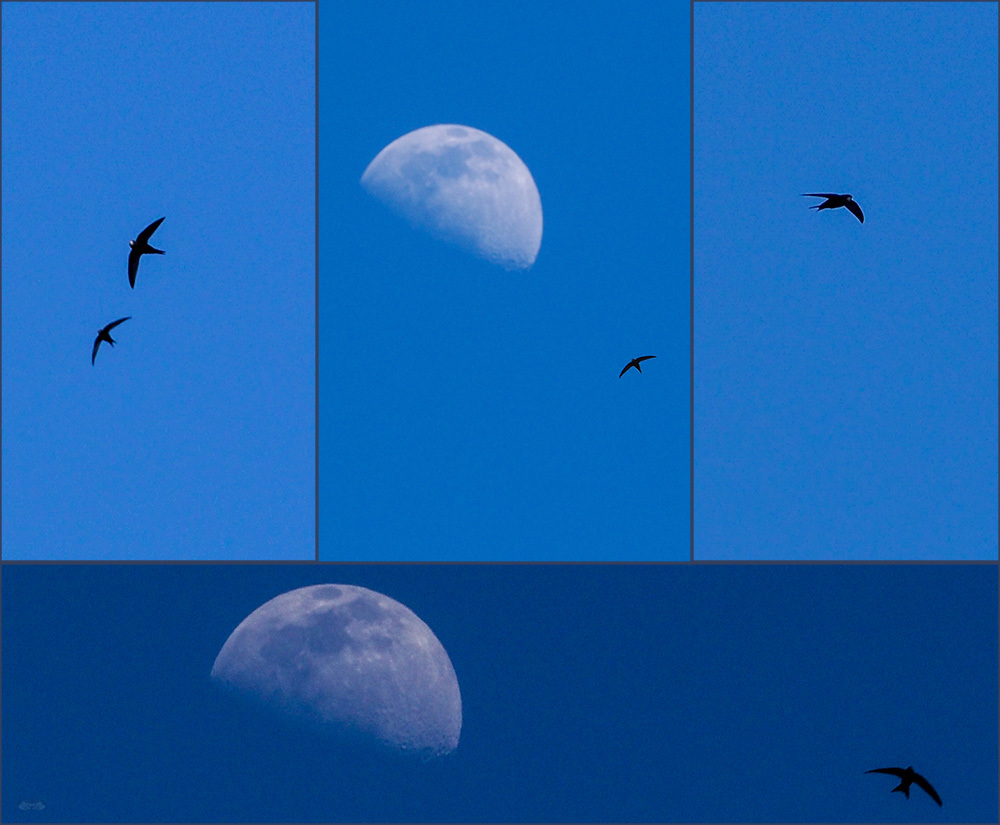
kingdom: Animalia
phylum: Chordata
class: Aves
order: Apodiformes
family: Apodidae
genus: Apus
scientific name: Apus apus
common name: Common swift
